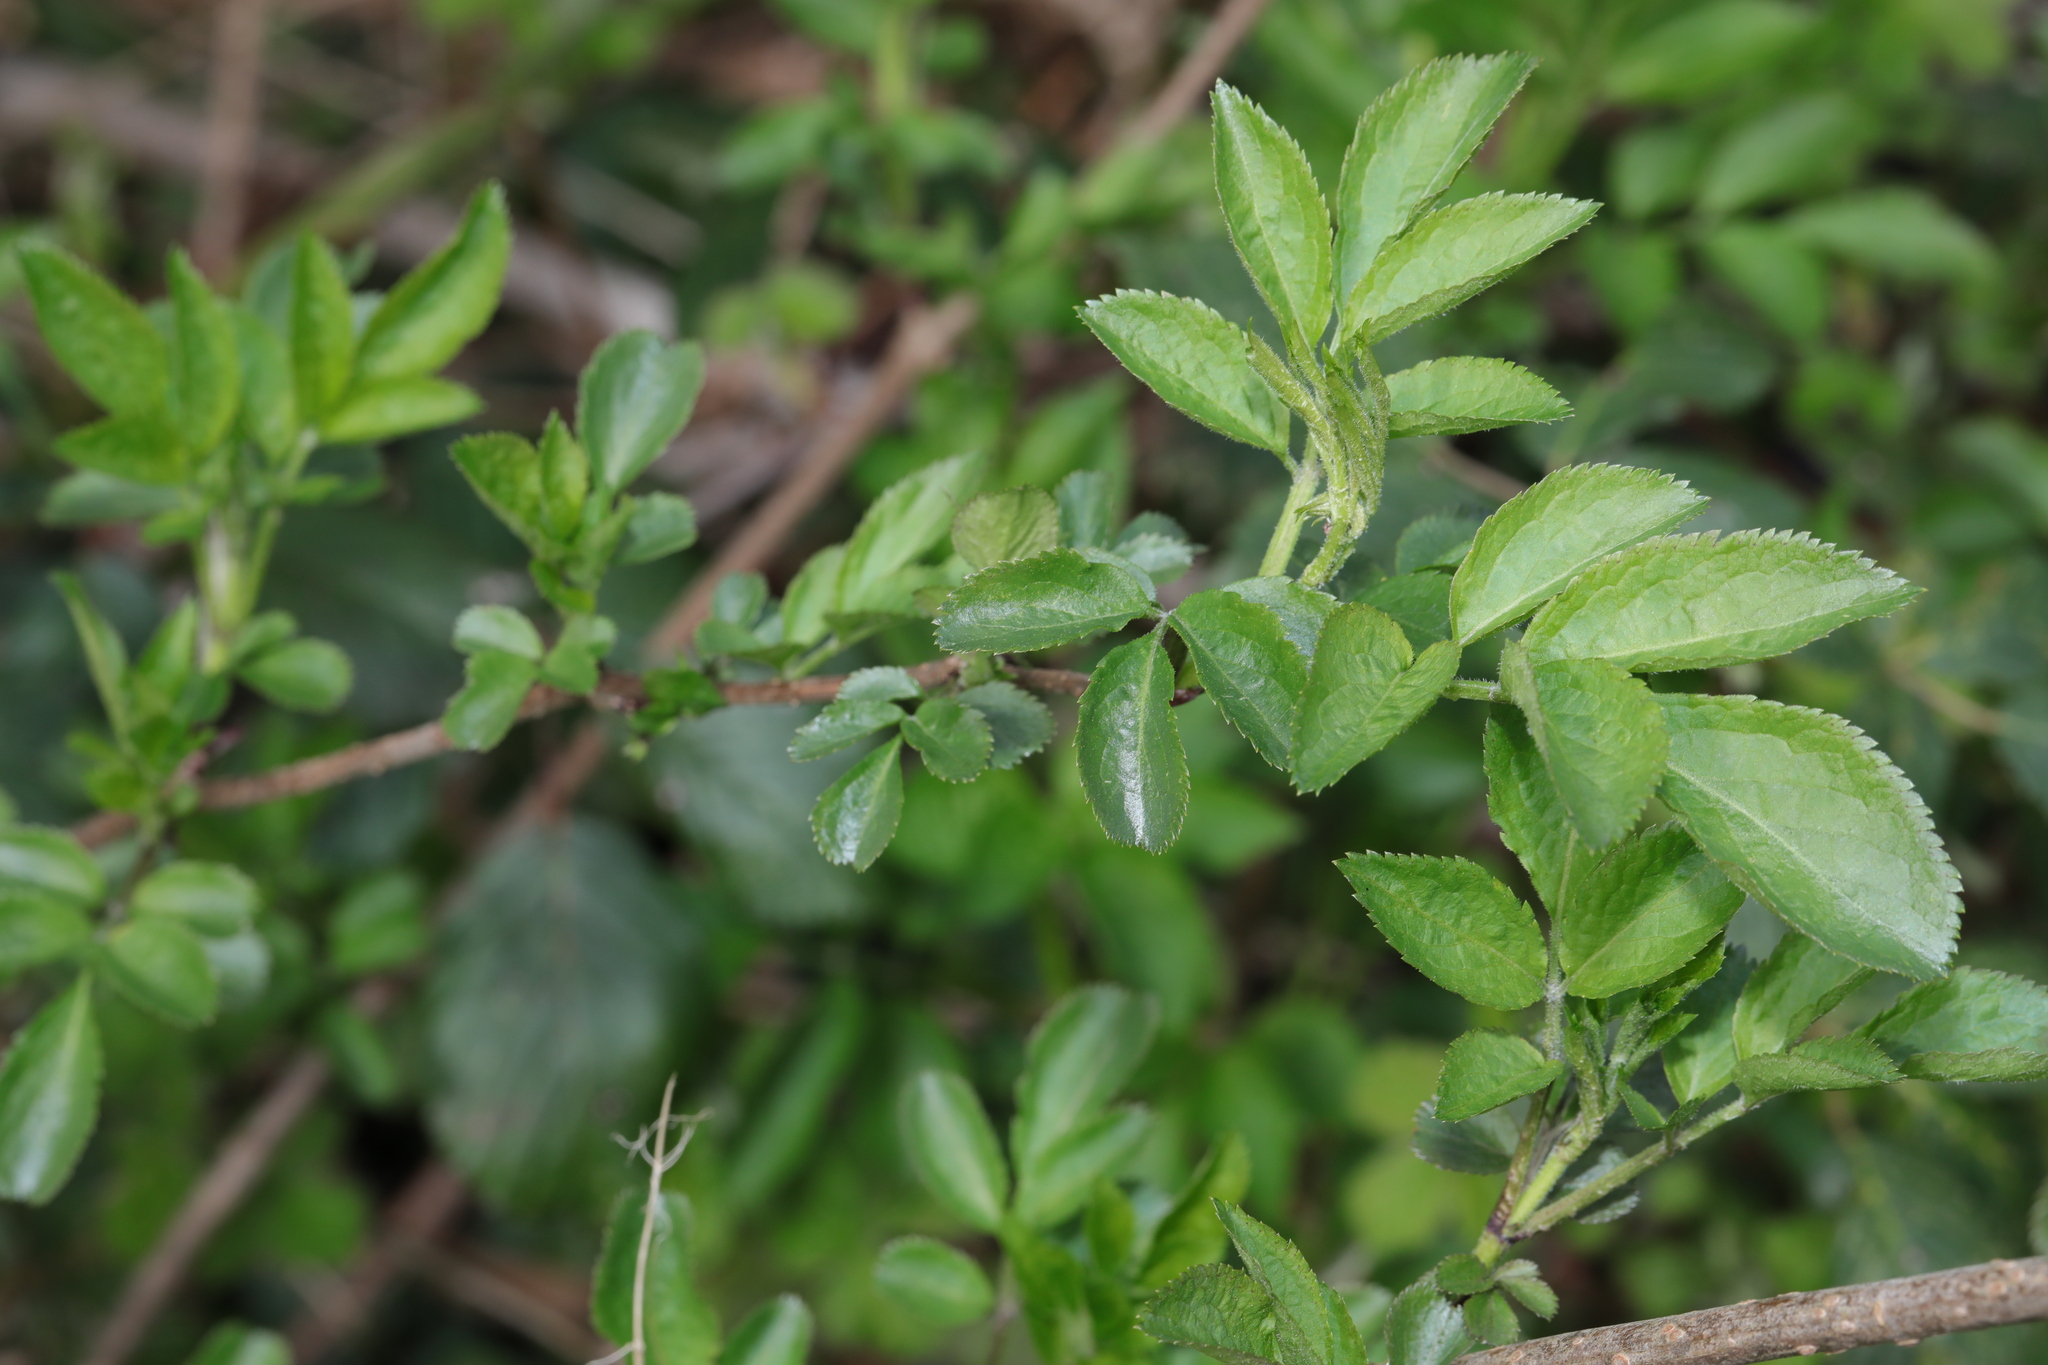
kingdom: Plantae
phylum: Tracheophyta
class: Magnoliopsida
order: Dipsacales
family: Viburnaceae
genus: Sambucus
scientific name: Sambucus nigra
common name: Elder
